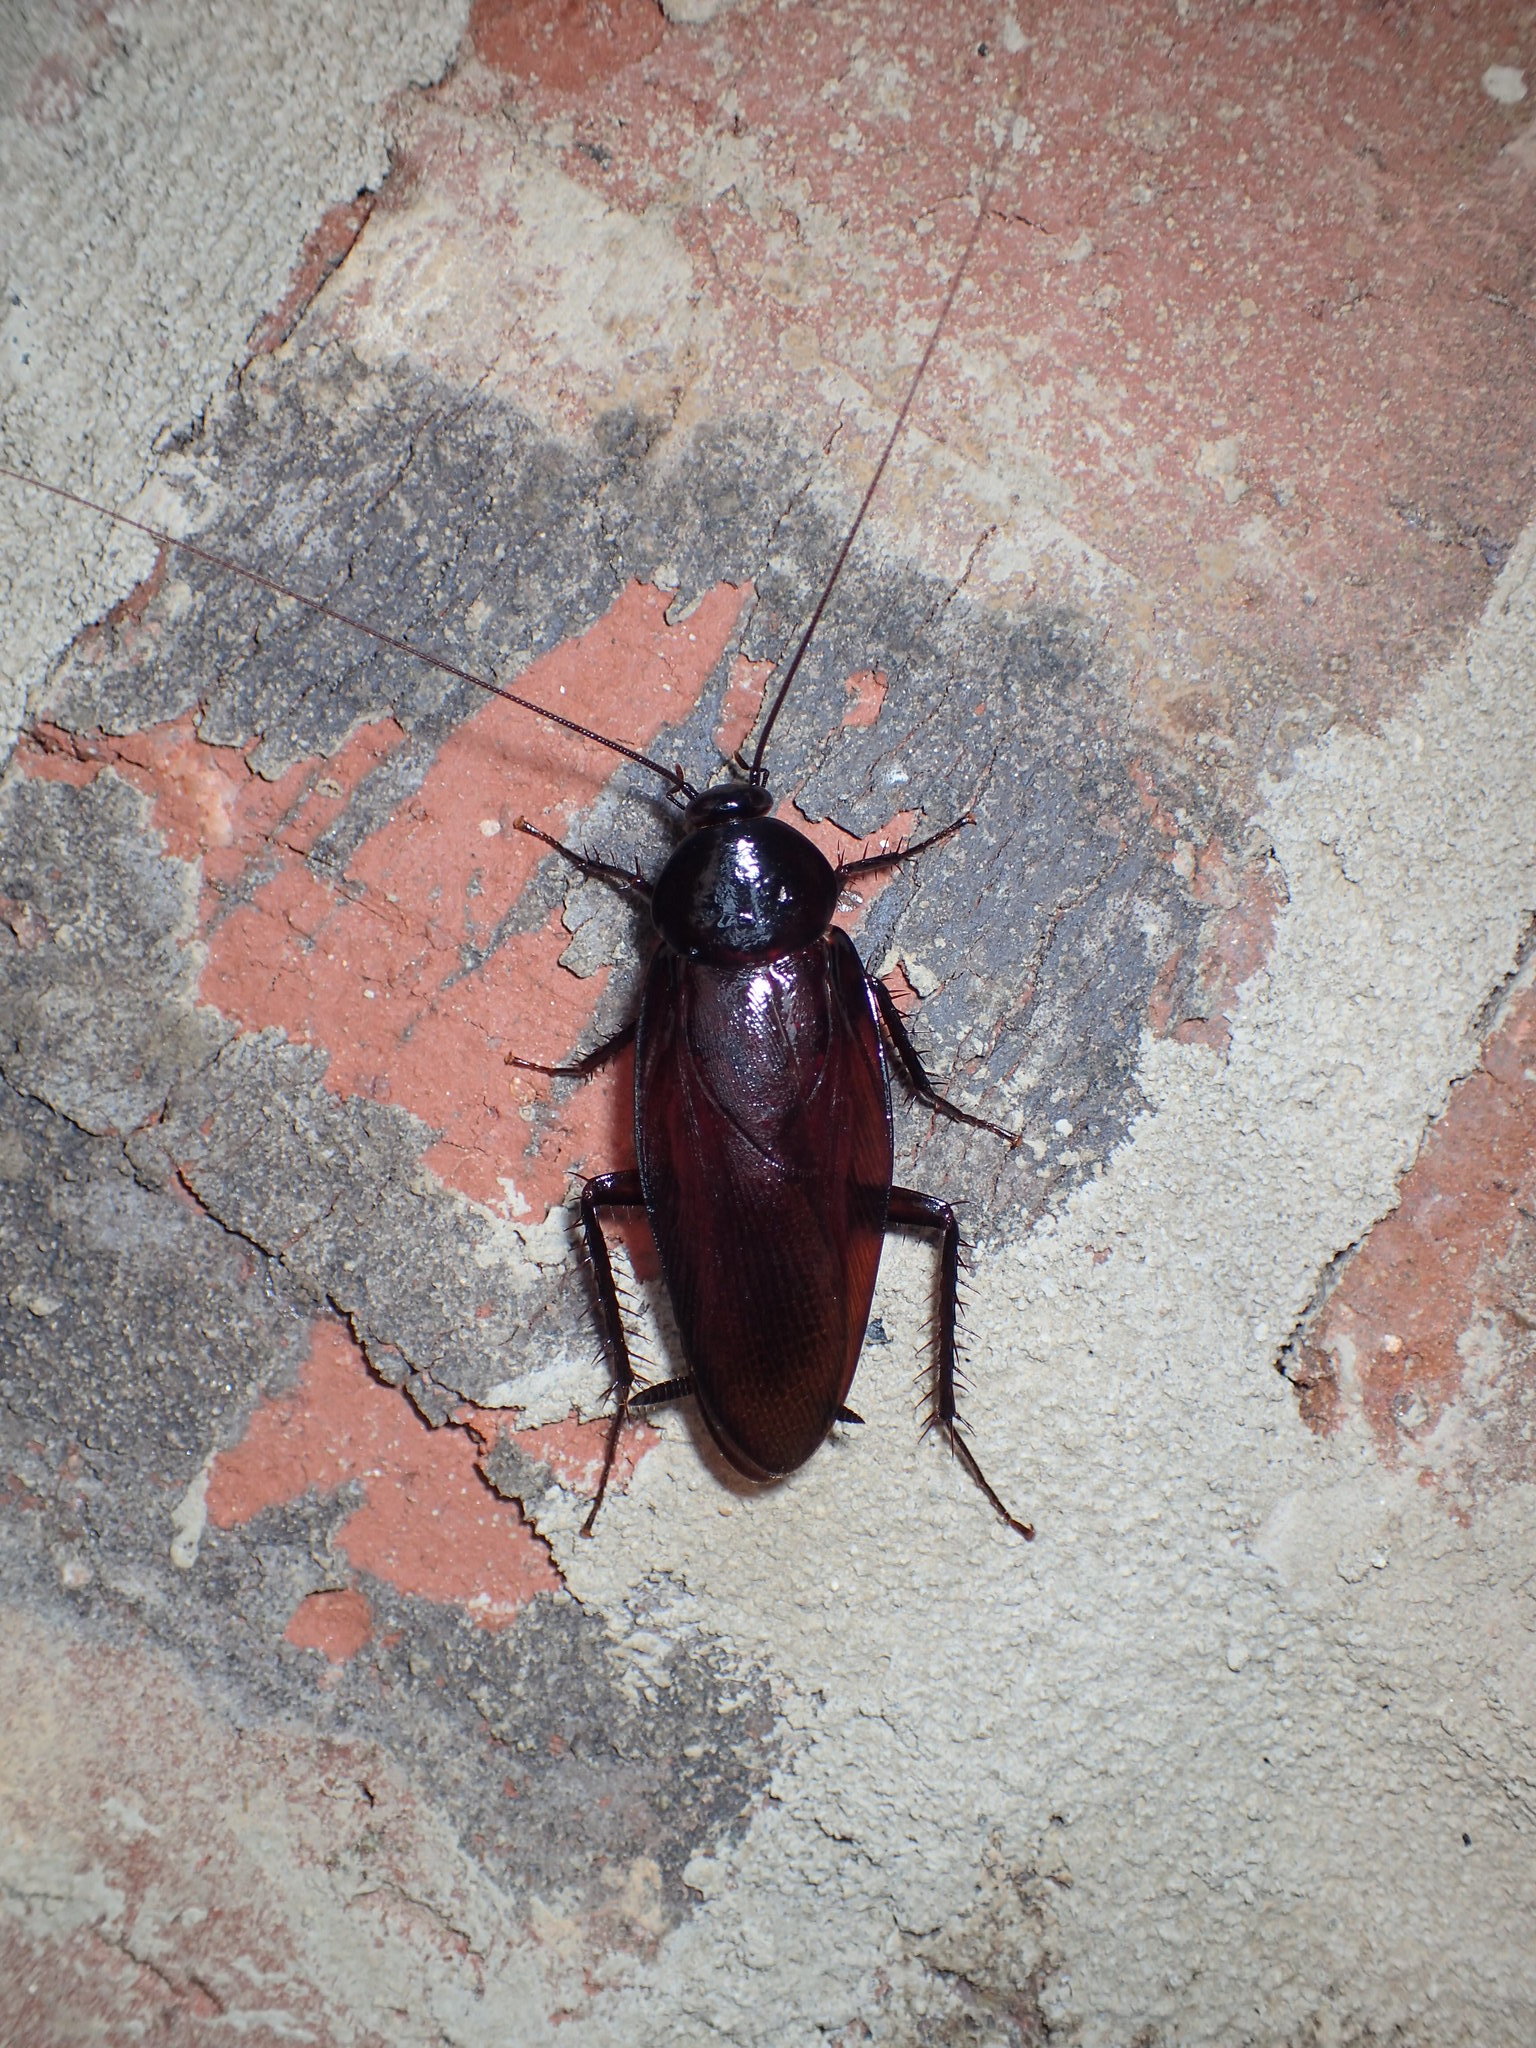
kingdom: Animalia
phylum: Arthropoda
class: Insecta
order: Blattodea
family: Blattidae
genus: Periplaneta
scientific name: Periplaneta fuliginosa
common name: Smokeybrown cockroad
